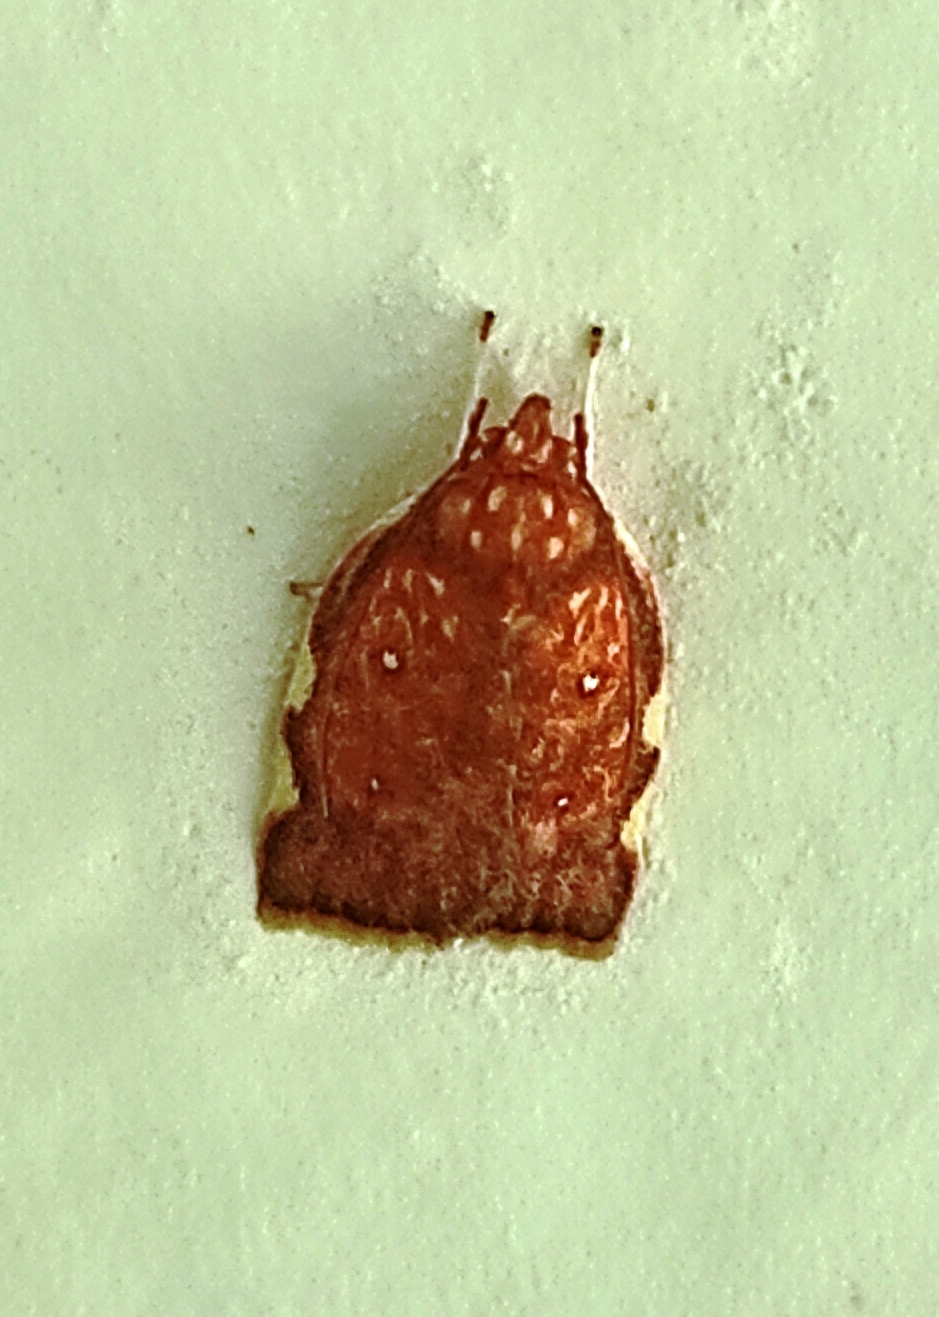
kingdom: Animalia
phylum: Arthropoda
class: Insecta
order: Lepidoptera
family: Depressariidae
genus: Gonionota
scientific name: Gonionota rosacea
